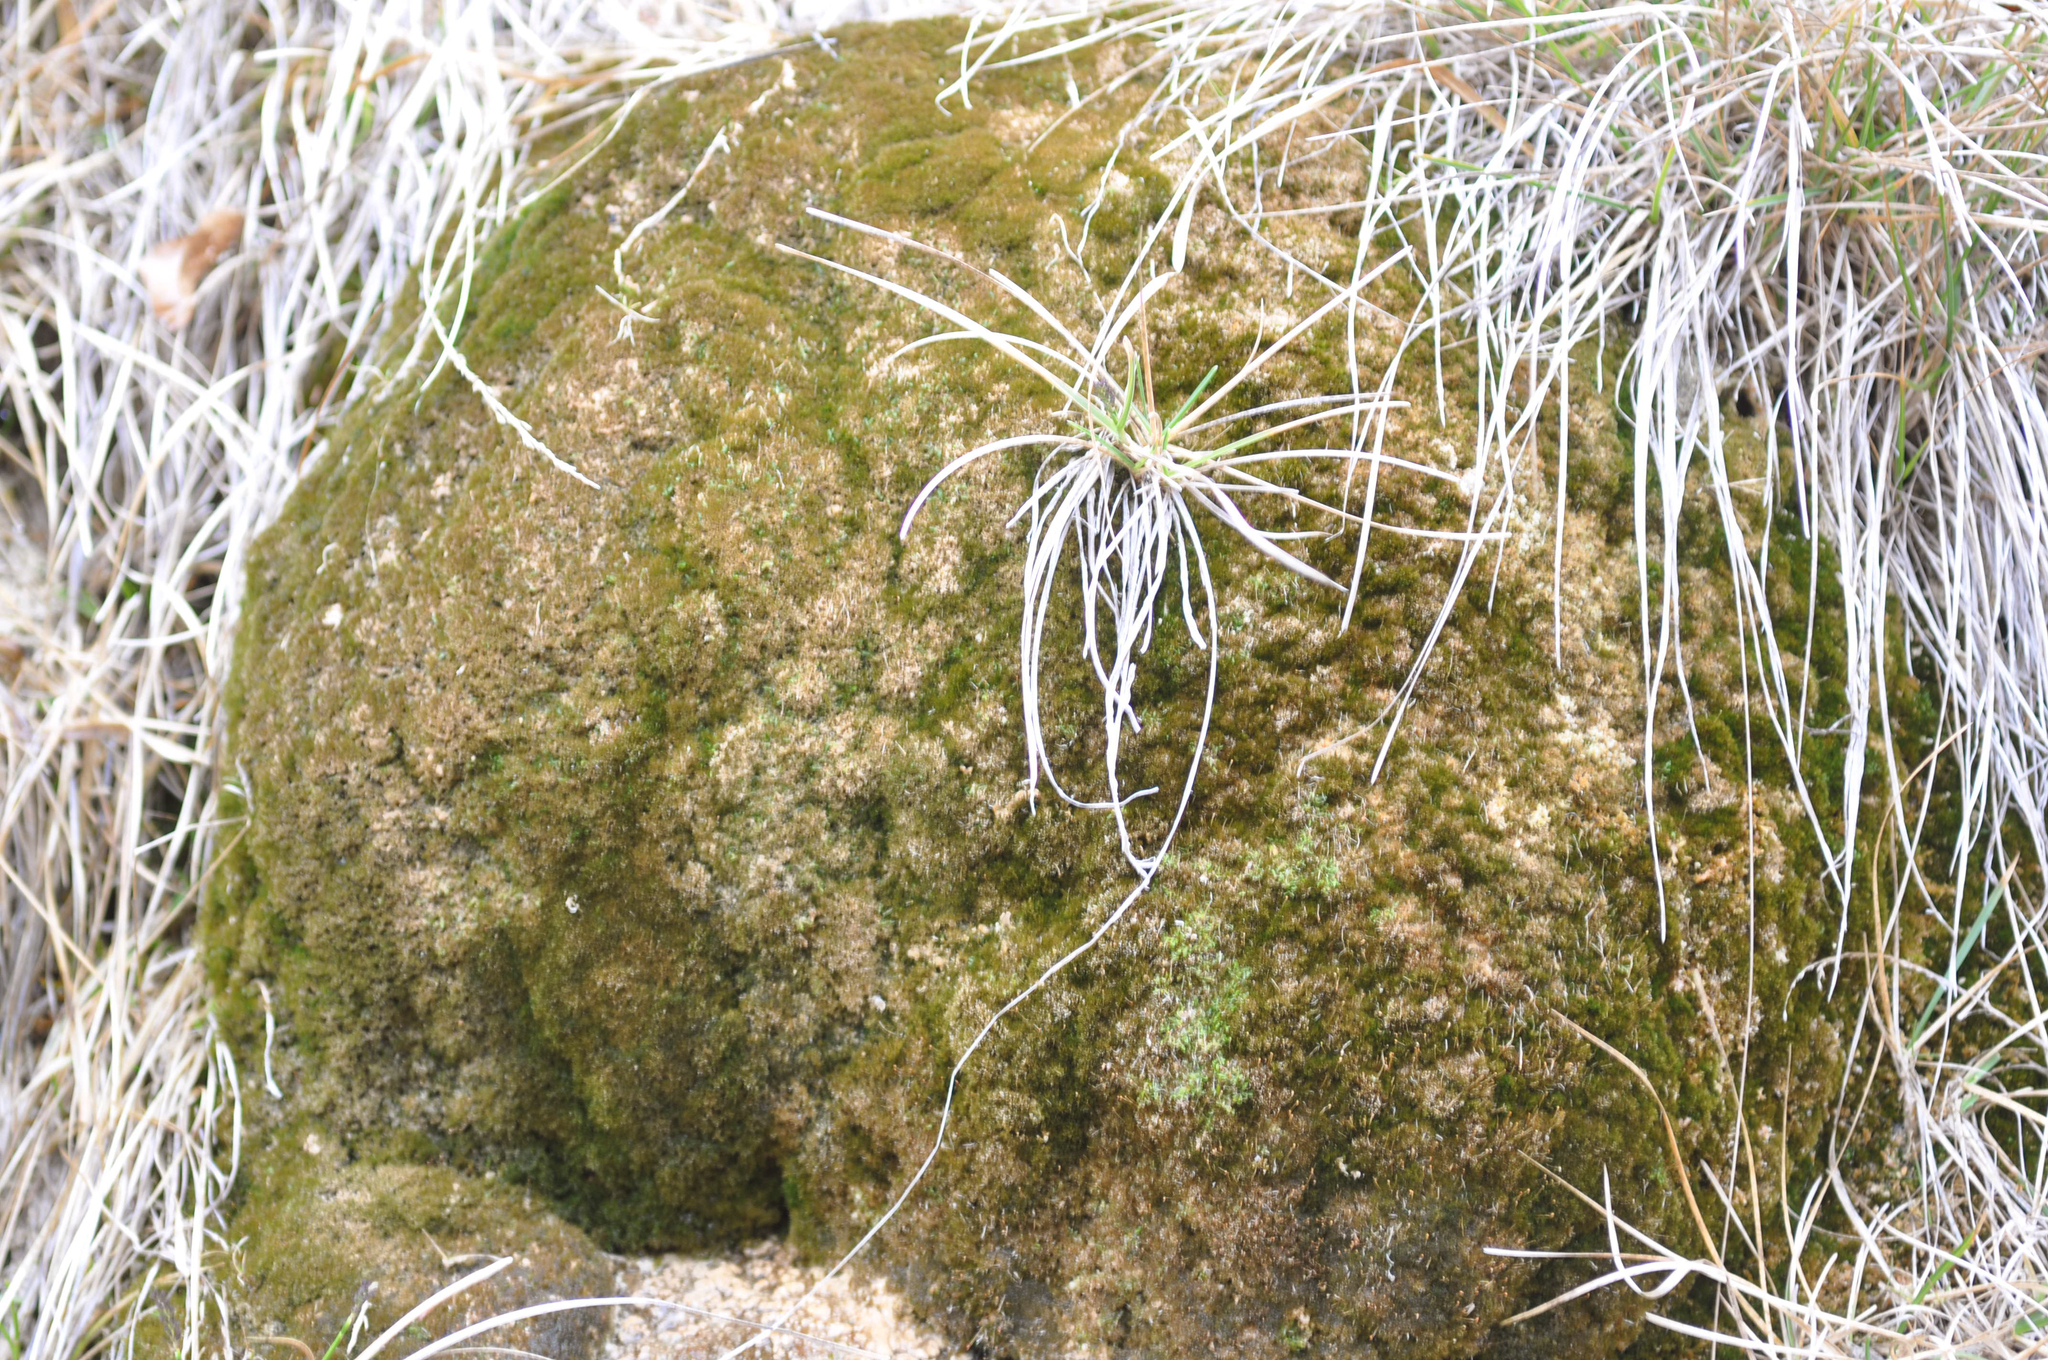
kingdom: Plantae
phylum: Bryophyta
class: Bryopsida
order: Pottiales
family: Pottiaceae
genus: Eucladium
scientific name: Eucladium verticillatum
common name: Whorled tufa-moss
